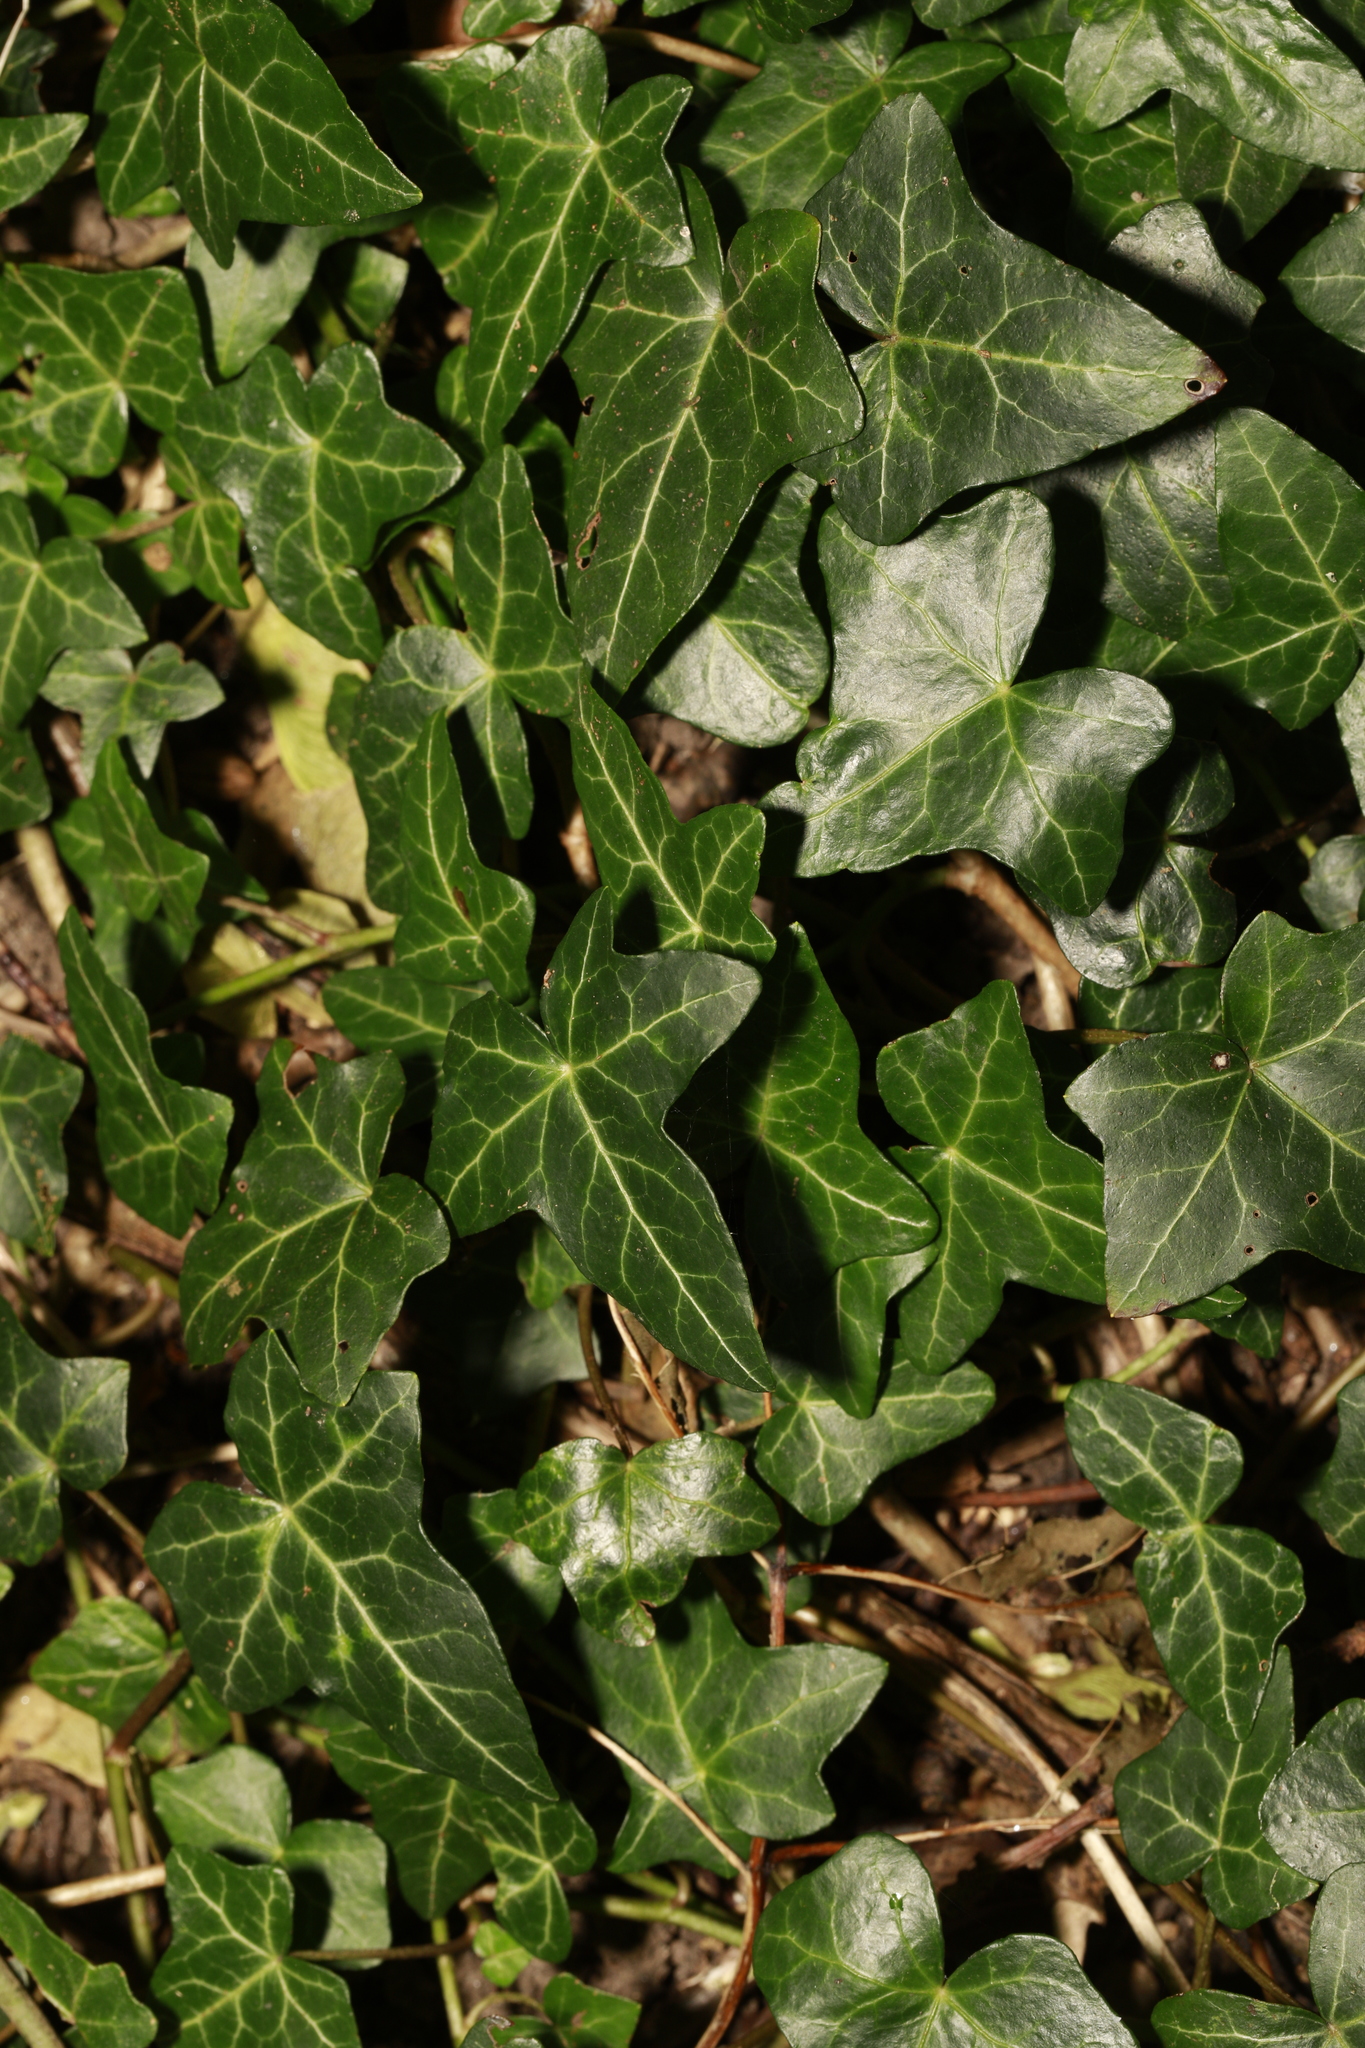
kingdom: Plantae
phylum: Tracheophyta
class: Magnoliopsida
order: Apiales
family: Araliaceae
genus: Hedera
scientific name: Hedera helix
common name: Ivy
